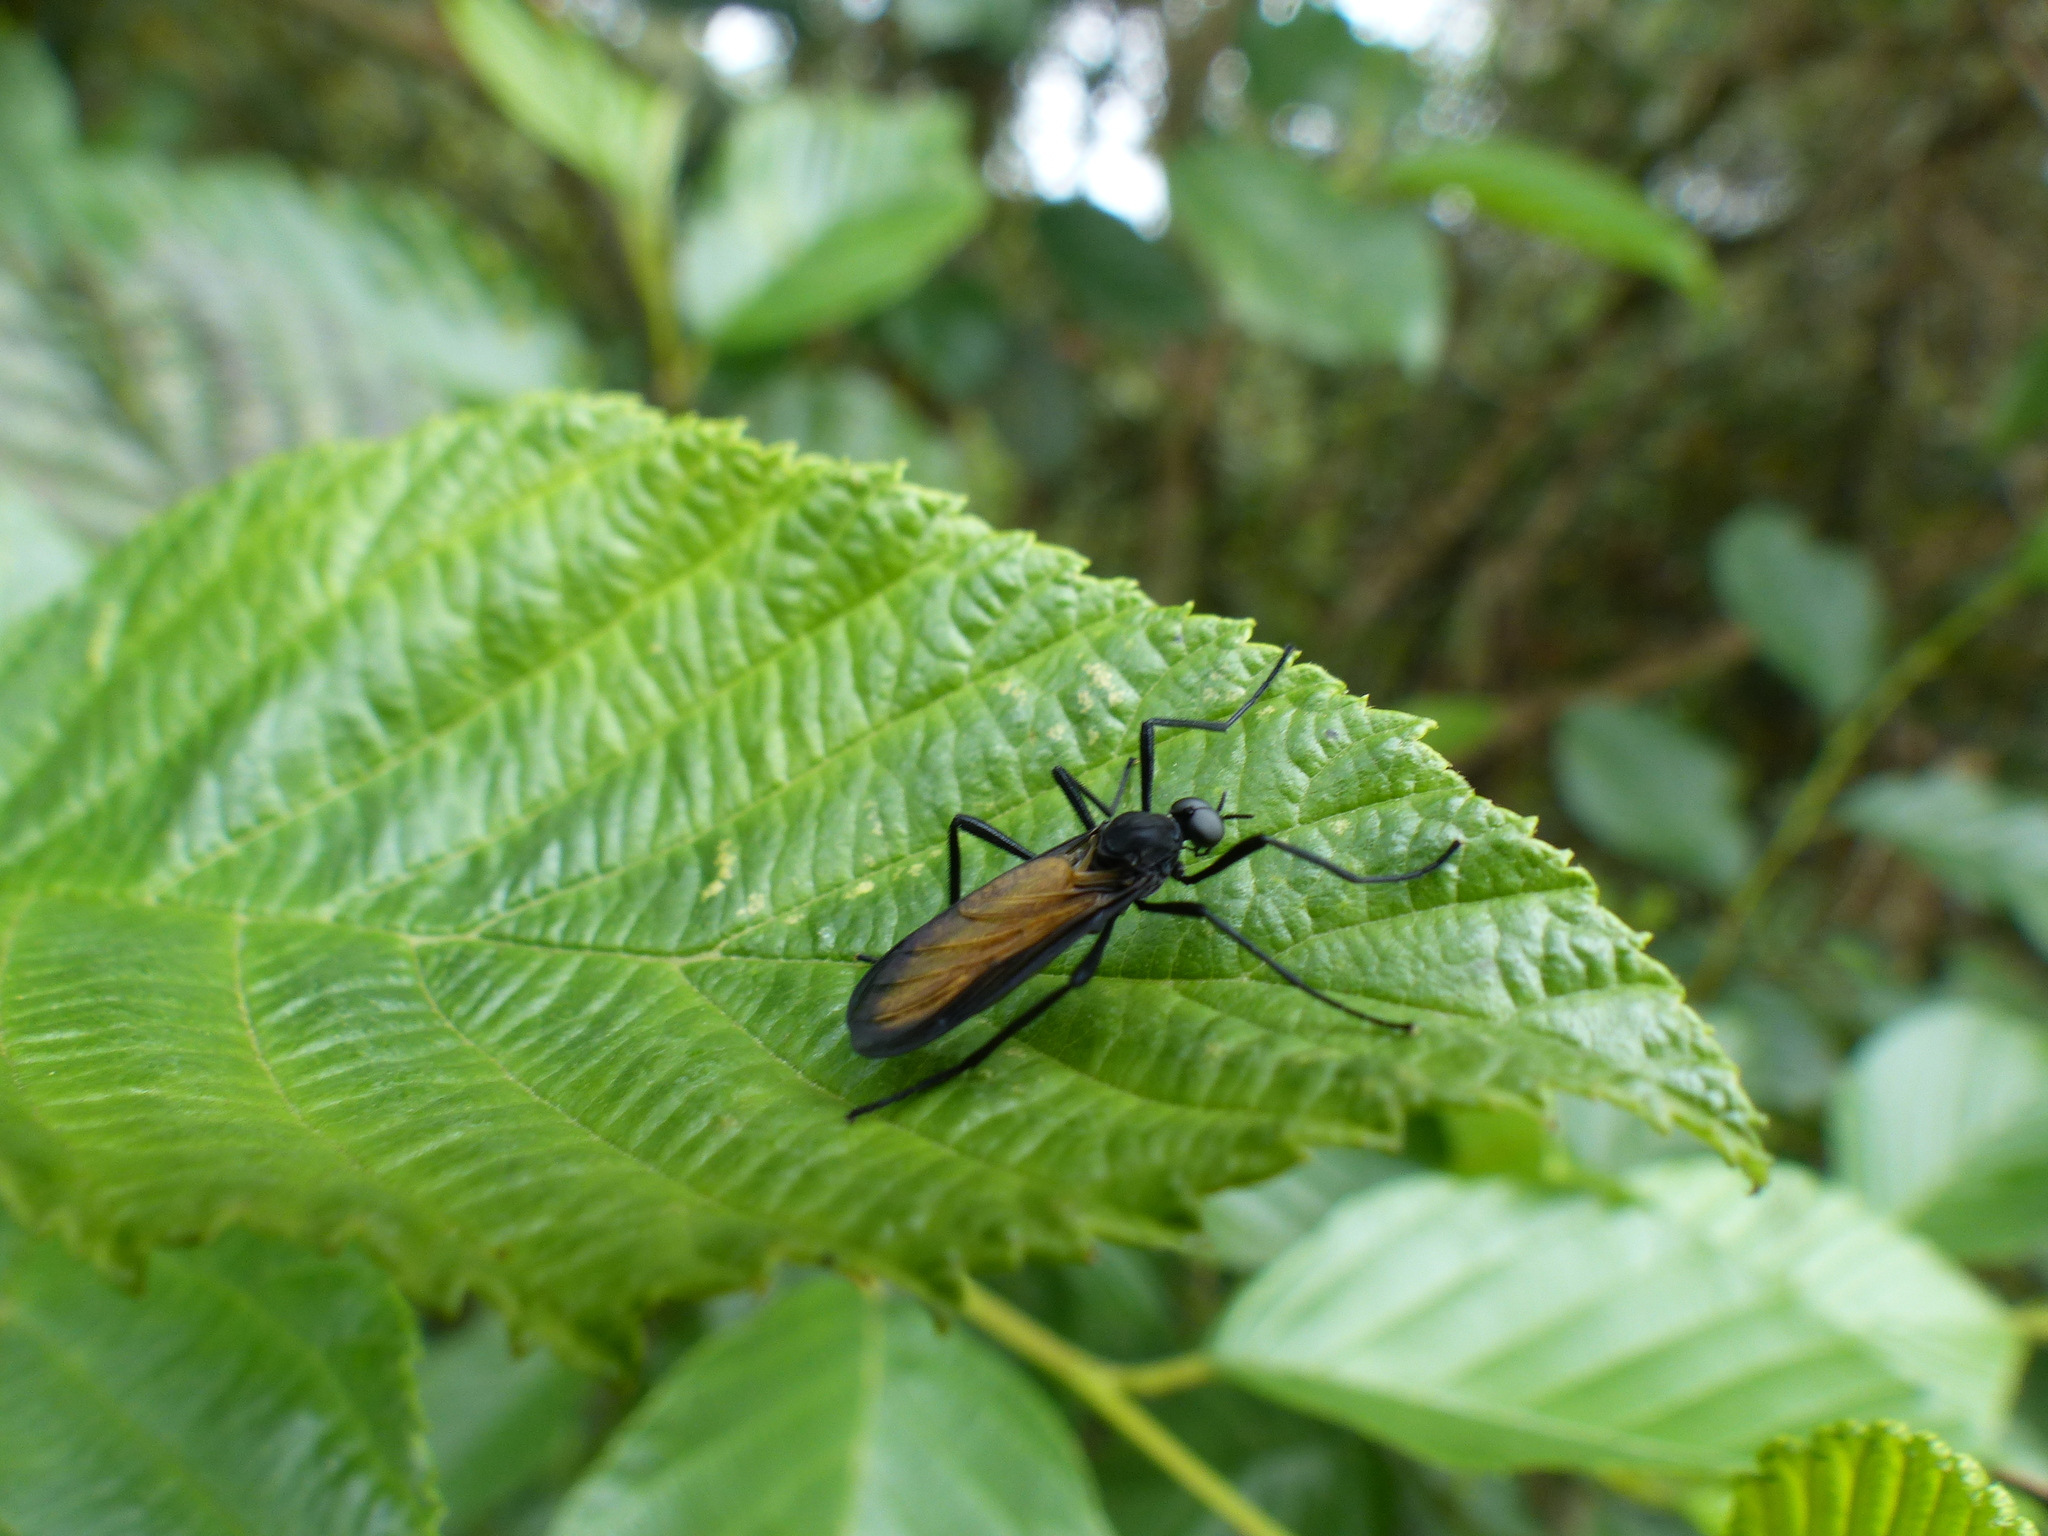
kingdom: Animalia
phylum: Arthropoda
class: Insecta
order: Diptera
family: Bibionidae
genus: Plecia
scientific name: Plecia imperialis
